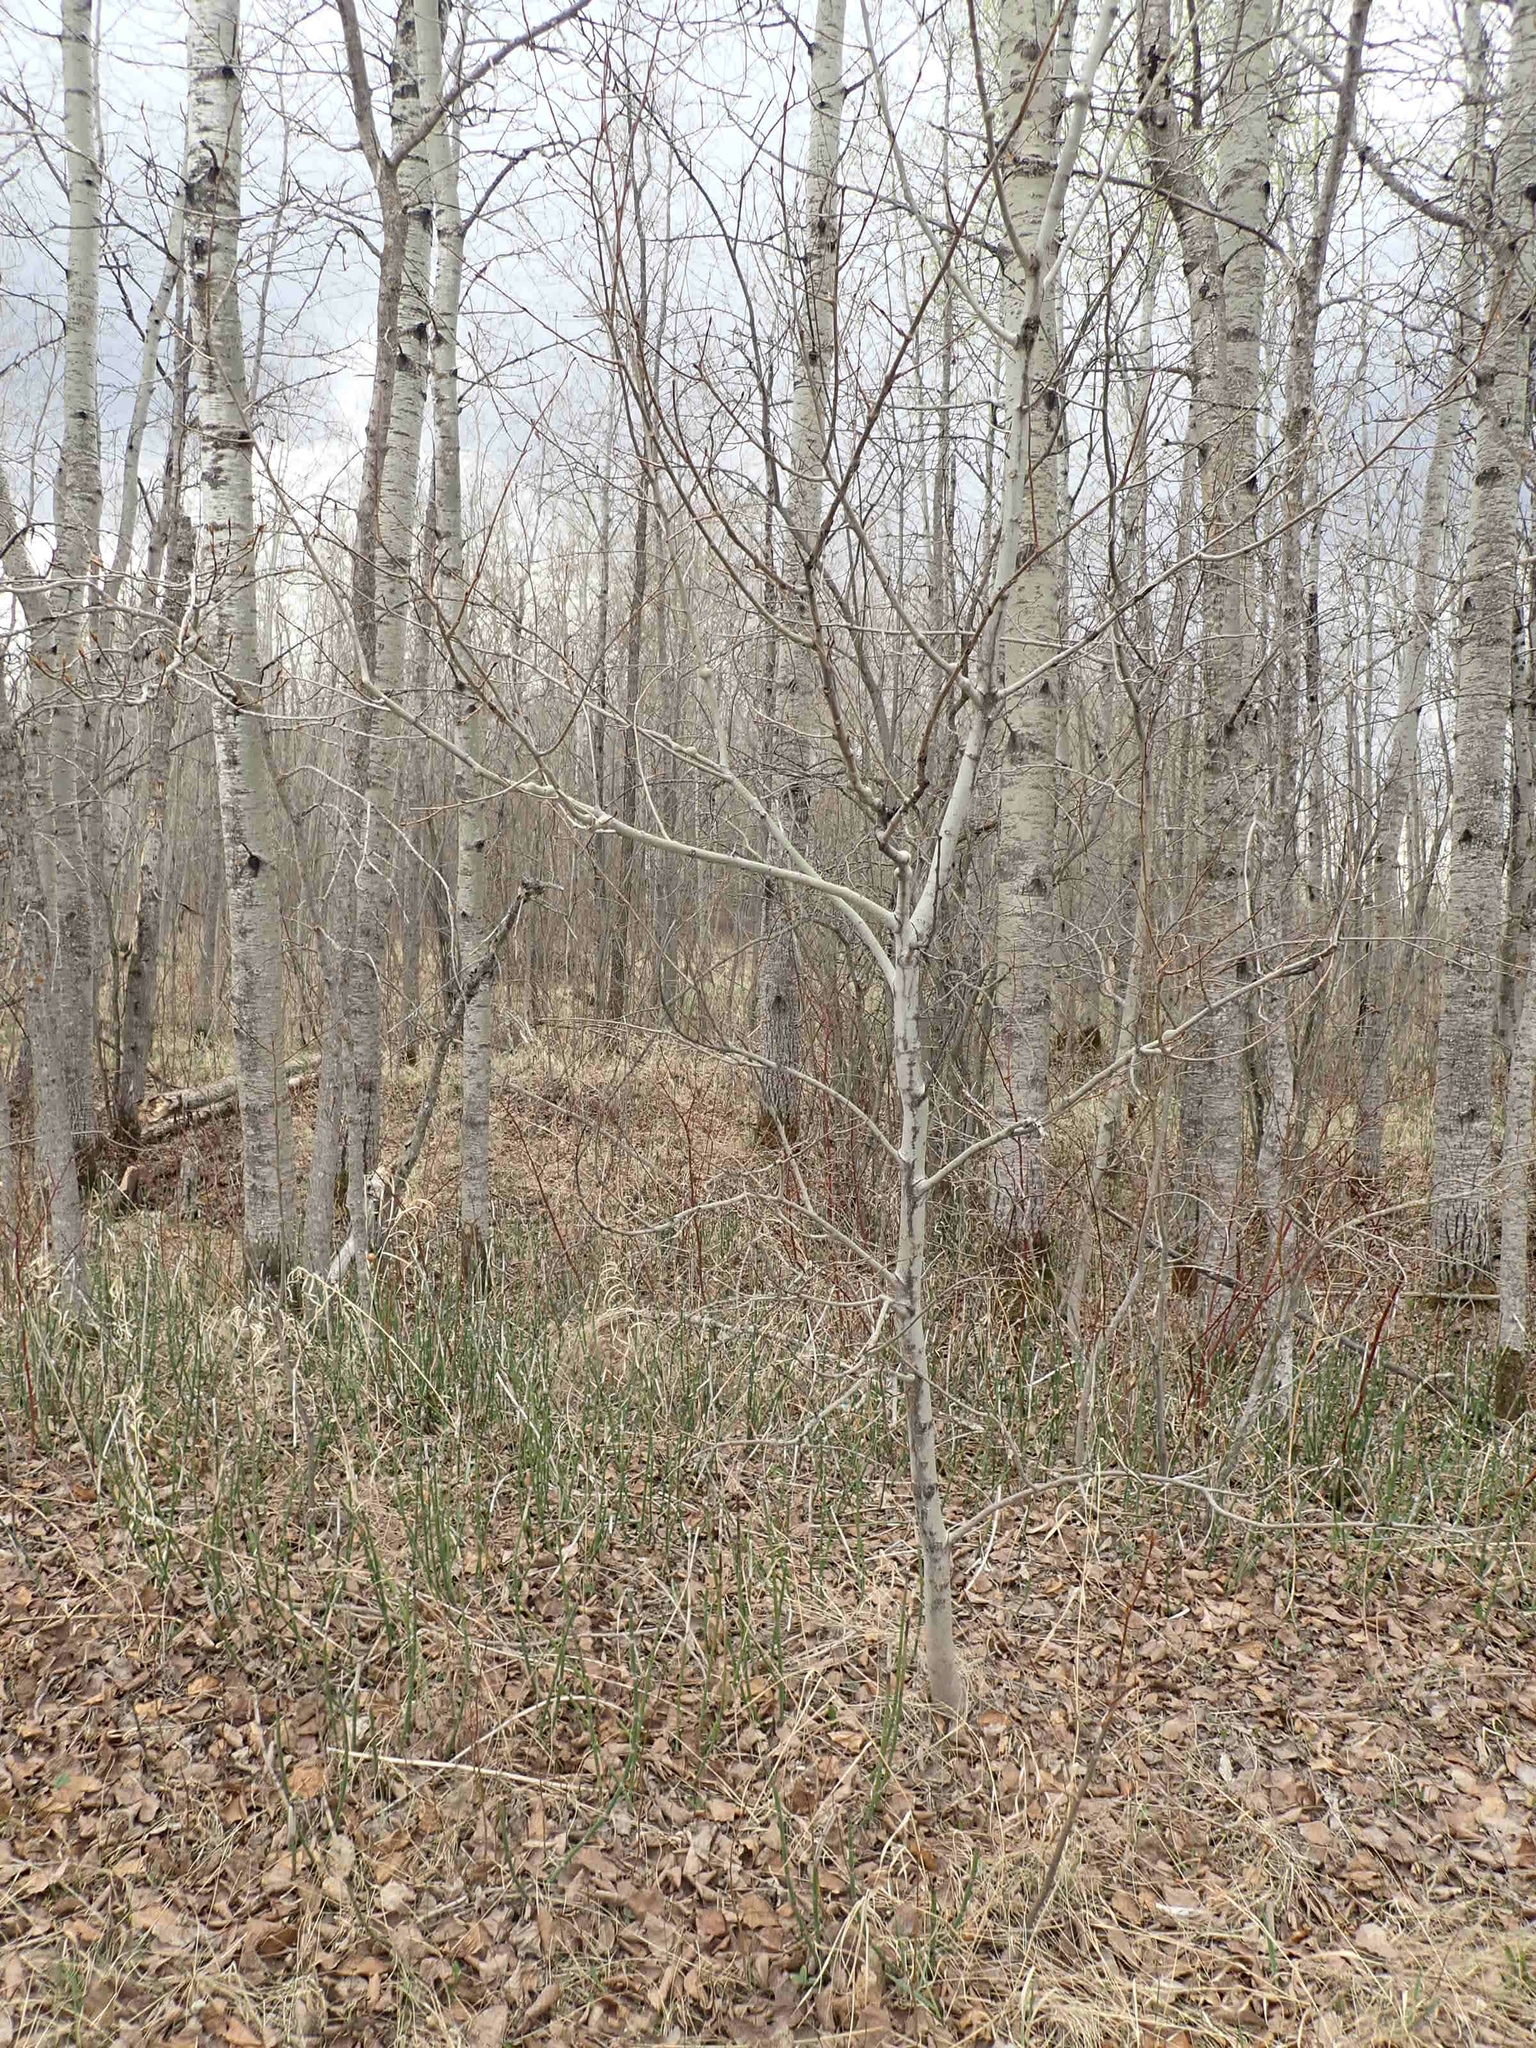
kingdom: Plantae
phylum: Tracheophyta
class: Magnoliopsida
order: Malpighiales
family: Salicaceae
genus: Populus
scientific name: Populus tremuloides
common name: Quaking aspen
